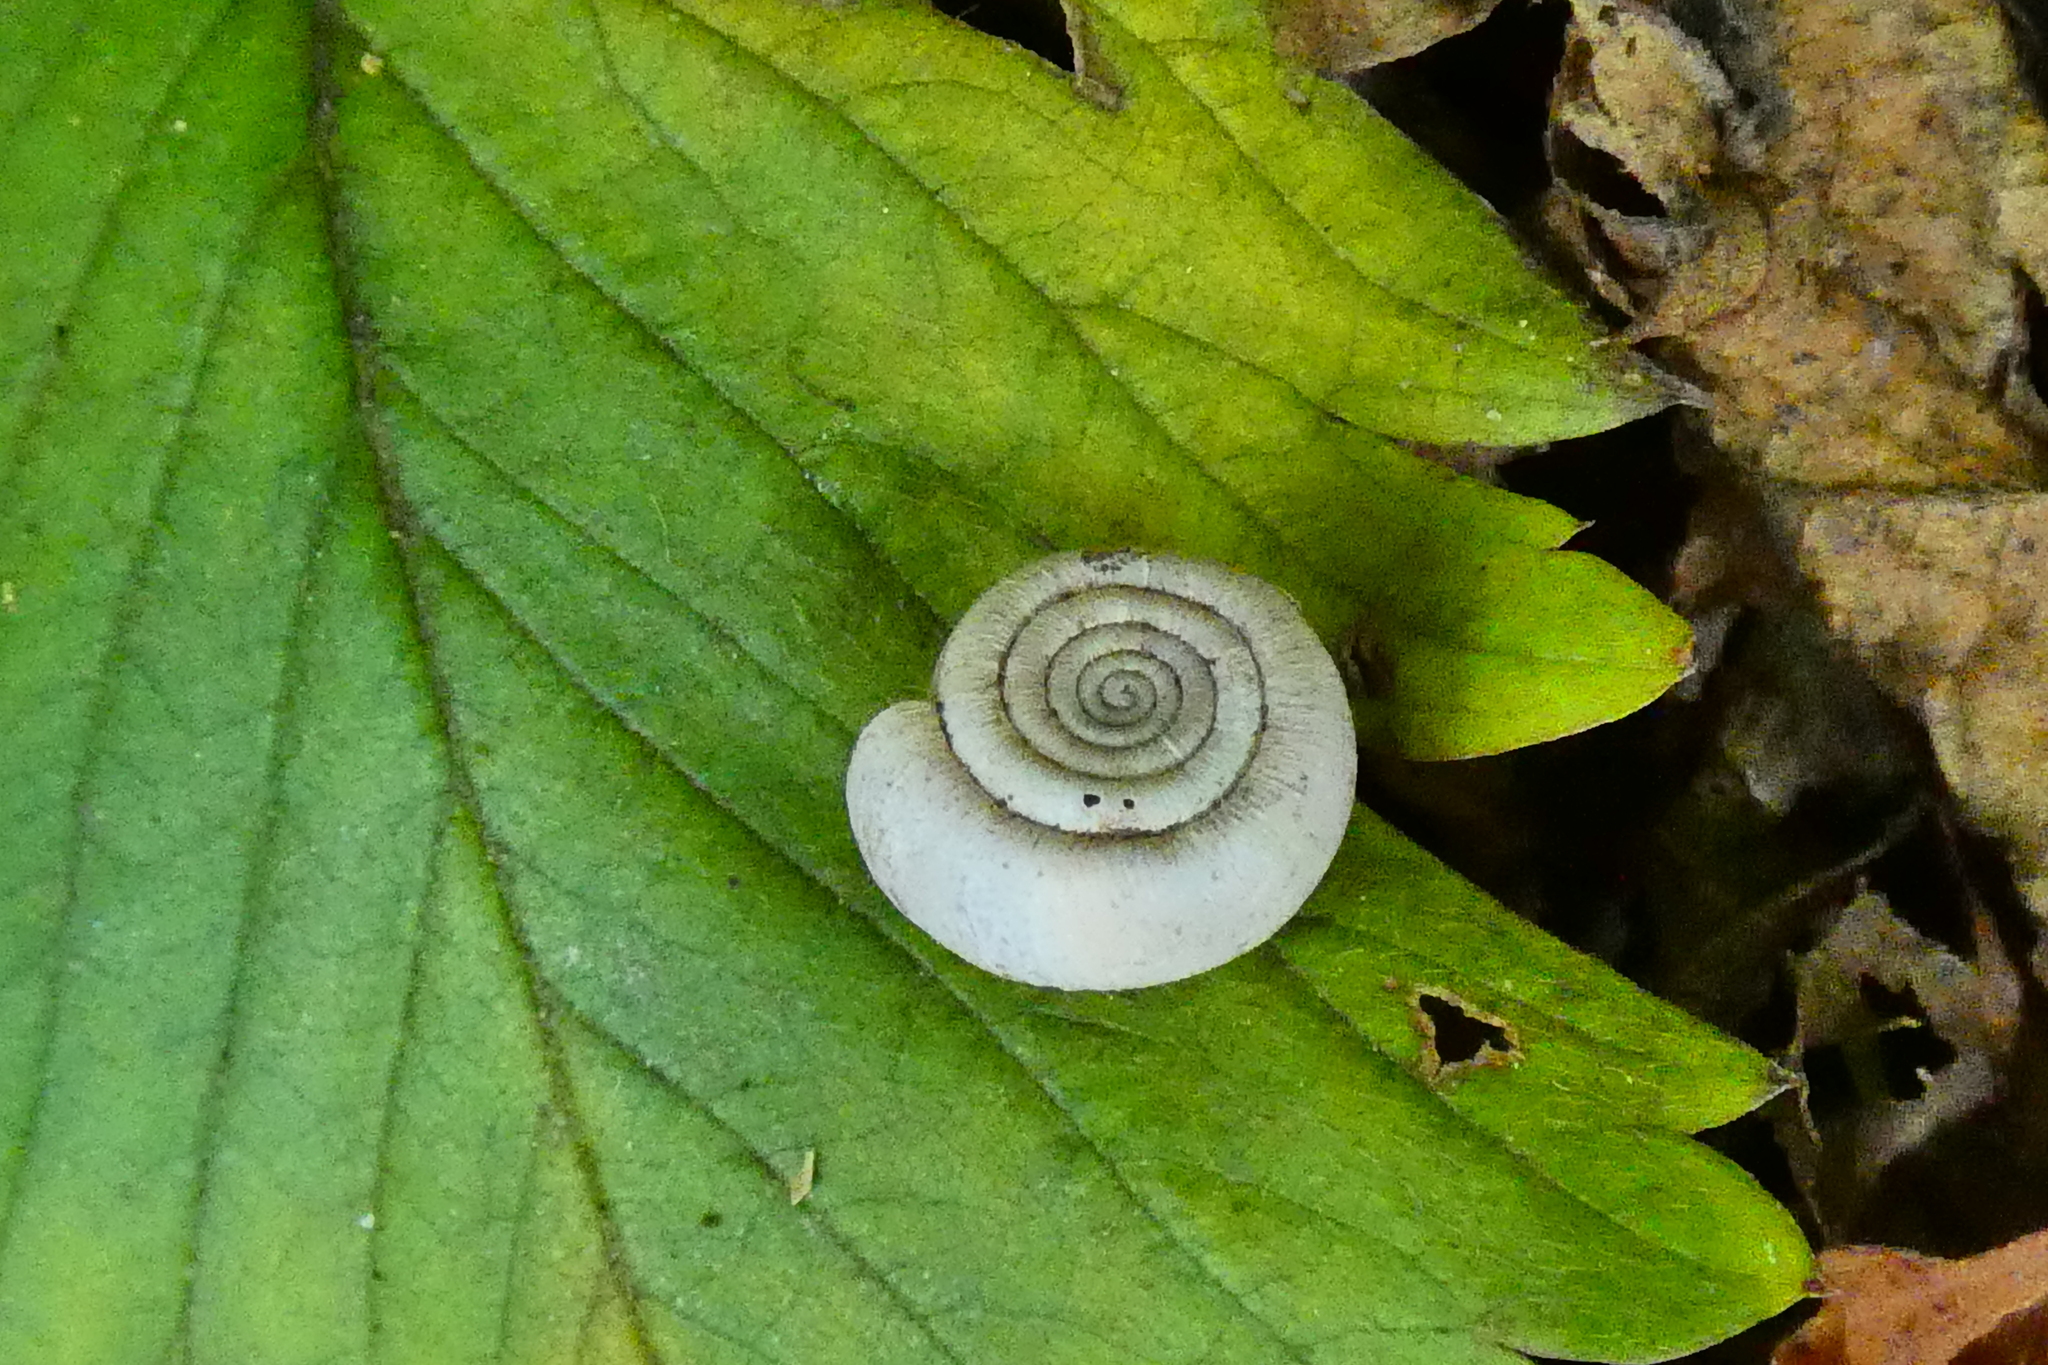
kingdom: Animalia
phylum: Mollusca
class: Gastropoda
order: Stylommatophora
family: Helicodontidae
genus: Helicodonta
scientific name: Helicodonta obvoluta
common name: Cheese snail
